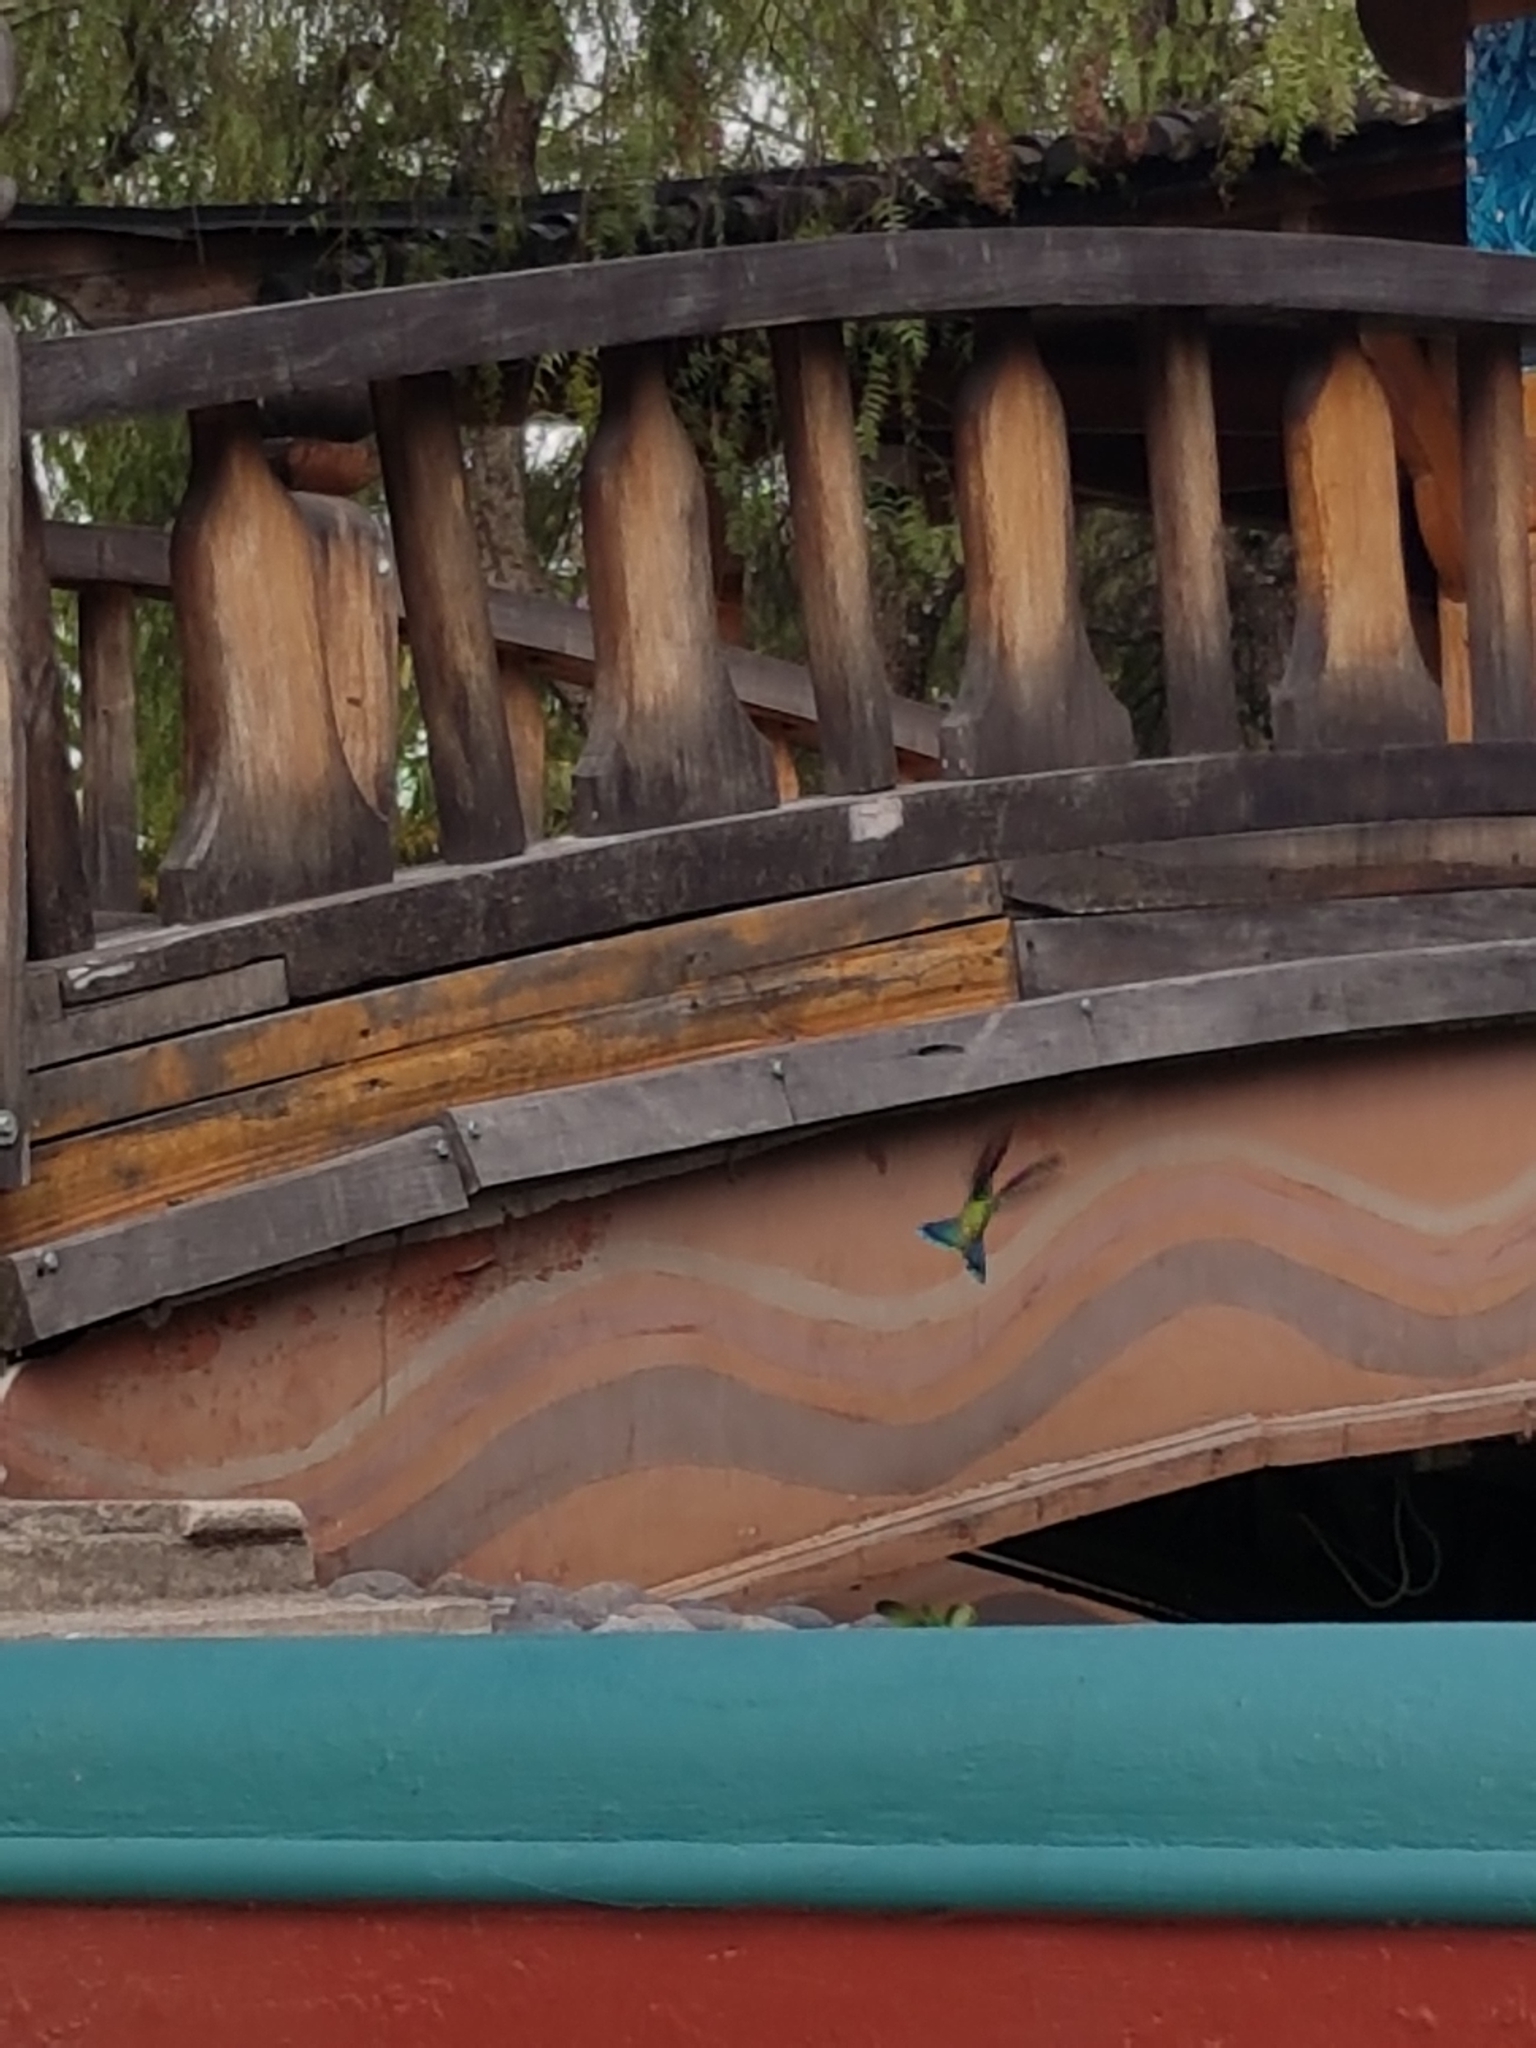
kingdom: Animalia
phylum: Chordata
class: Aves
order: Apodiformes
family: Trochilidae
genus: Colibri
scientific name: Colibri coruscans
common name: Sparkling violetear
